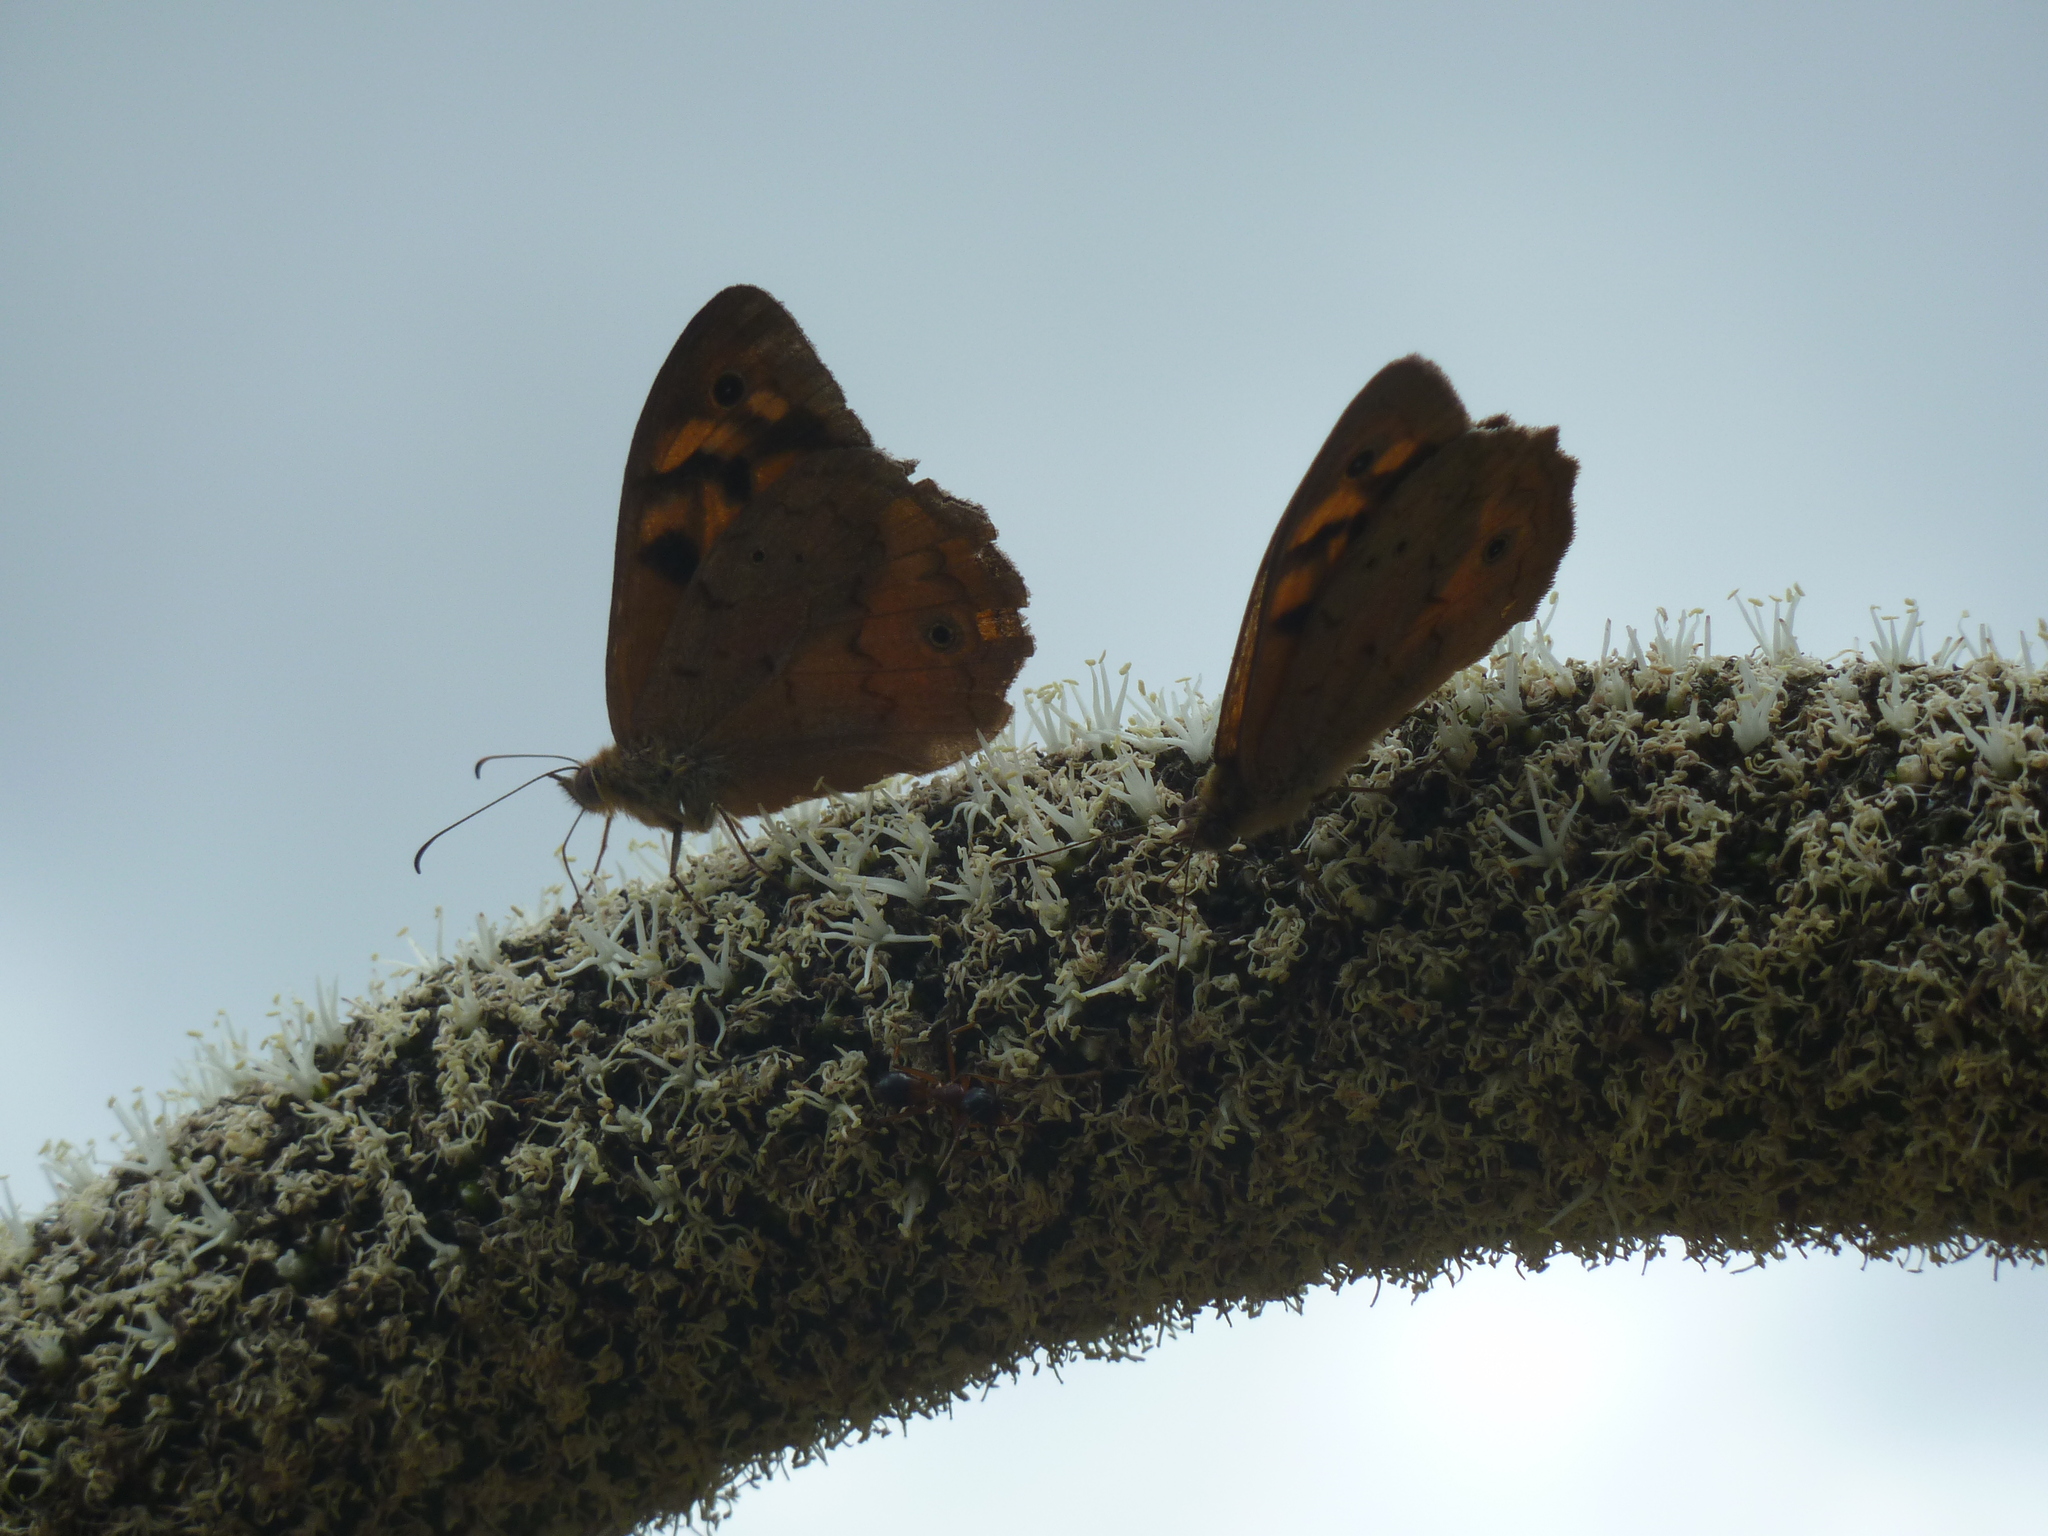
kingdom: Animalia
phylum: Arthropoda
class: Insecta
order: Lepidoptera
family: Nymphalidae
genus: Heteronympha
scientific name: Heteronympha merope
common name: Common brown
